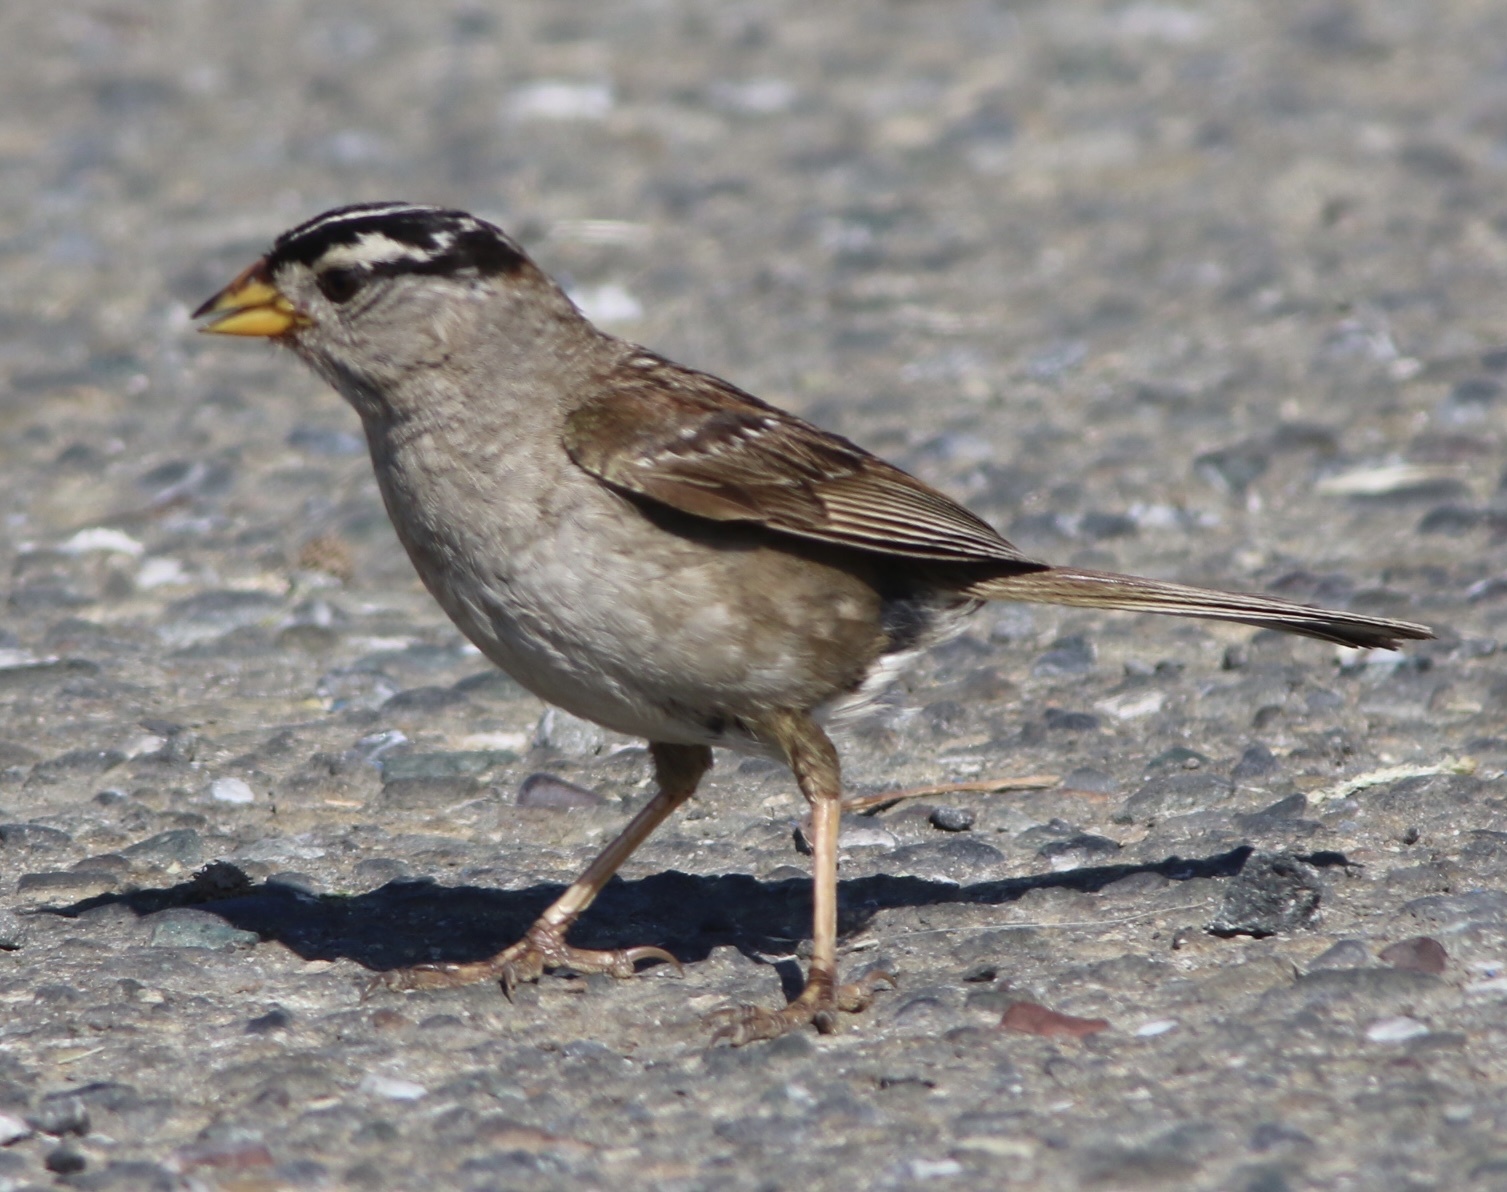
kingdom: Animalia
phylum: Chordata
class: Aves
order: Passeriformes
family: Passerellidae
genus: Zonotrichia
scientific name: Zonotrichia leucophrys
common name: White-crowned sparrow
